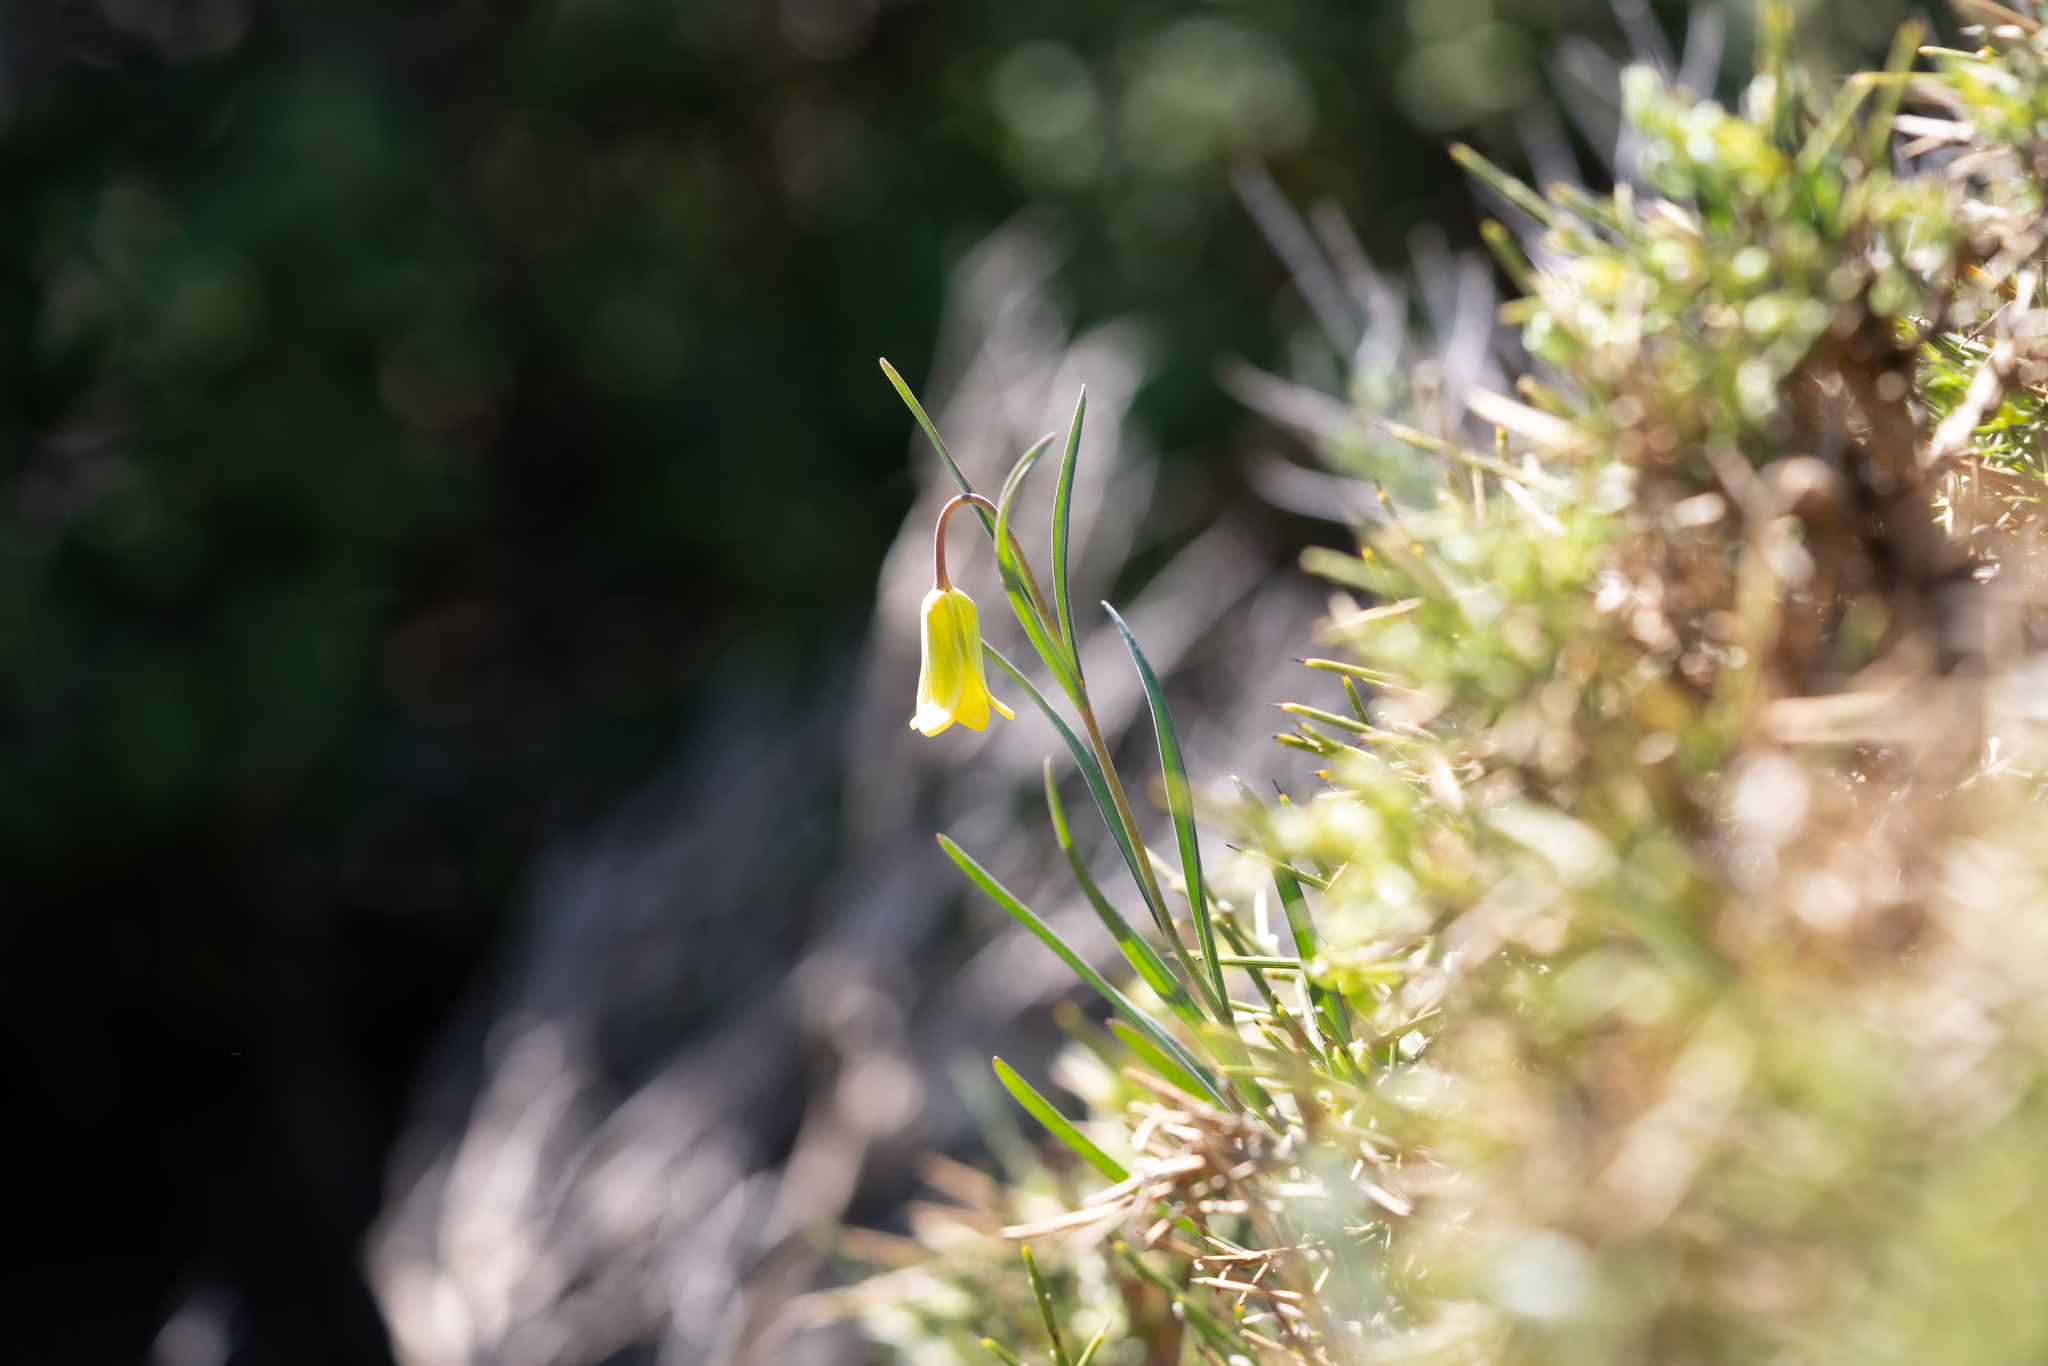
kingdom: Plantae
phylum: Tracheophyta
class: Liliopsida
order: Liliales
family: Liliaceae
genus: Fritillaria
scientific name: Fritillaria rhodia
